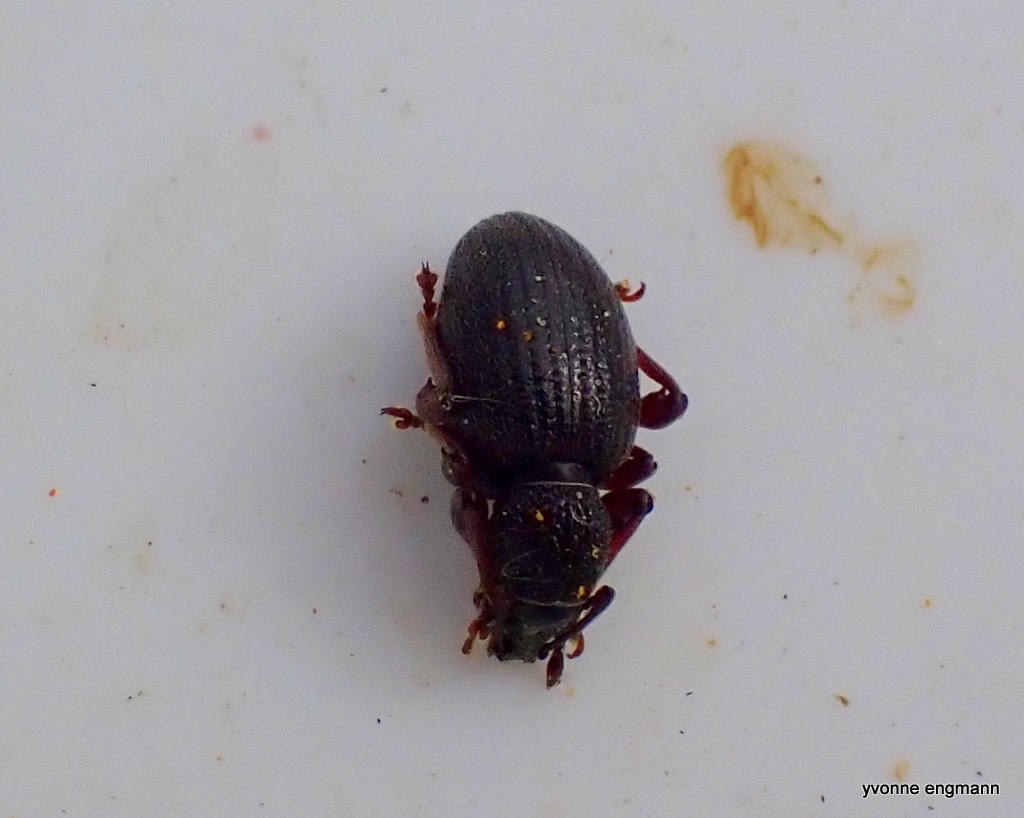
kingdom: Animalia
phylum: Arthropoda
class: Insecta
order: Coleoptera
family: Curculionidae
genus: Otiorhynchus
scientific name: Otiorhynchus ovatus
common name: Strawberry root weevil
